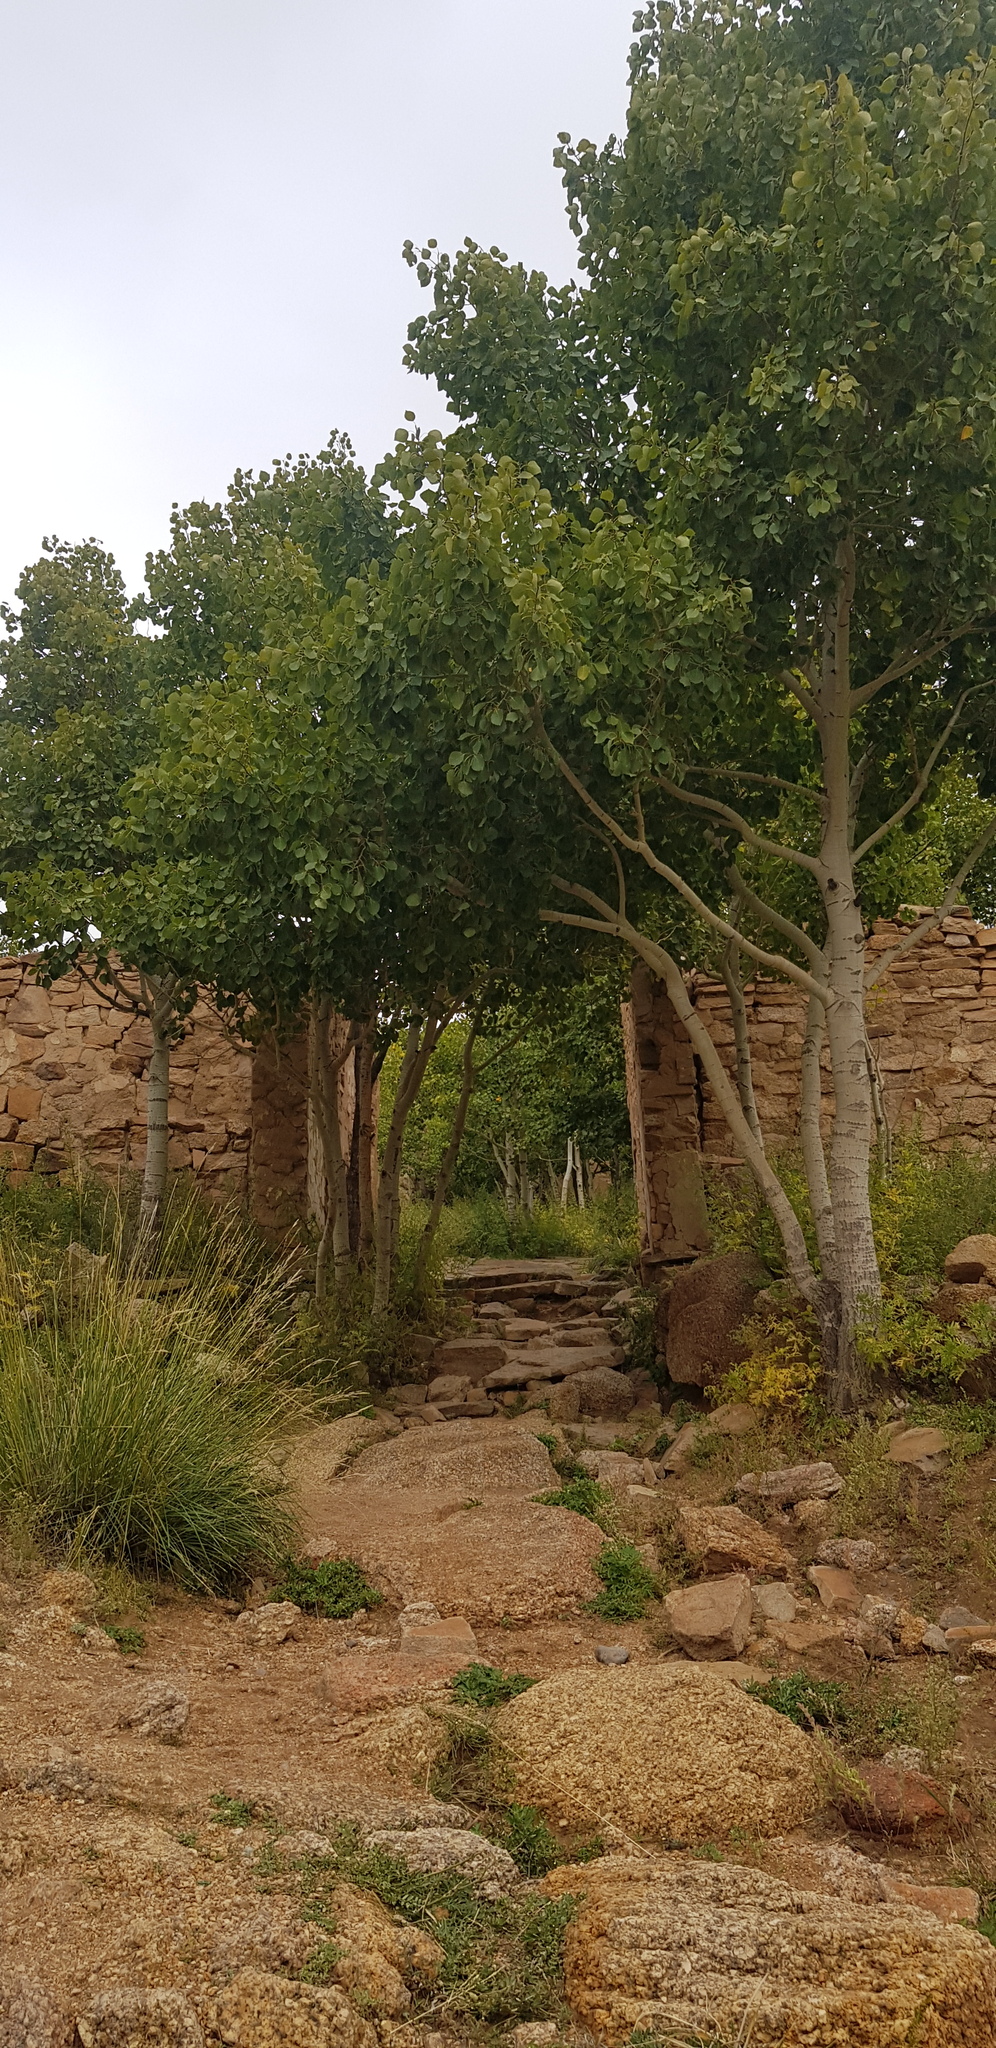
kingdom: Plantae
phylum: Tracheophyta
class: Magnoliopsida
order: Malpighiales
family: Salicaceae
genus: Populus
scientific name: Populus tremula
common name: European aspen
